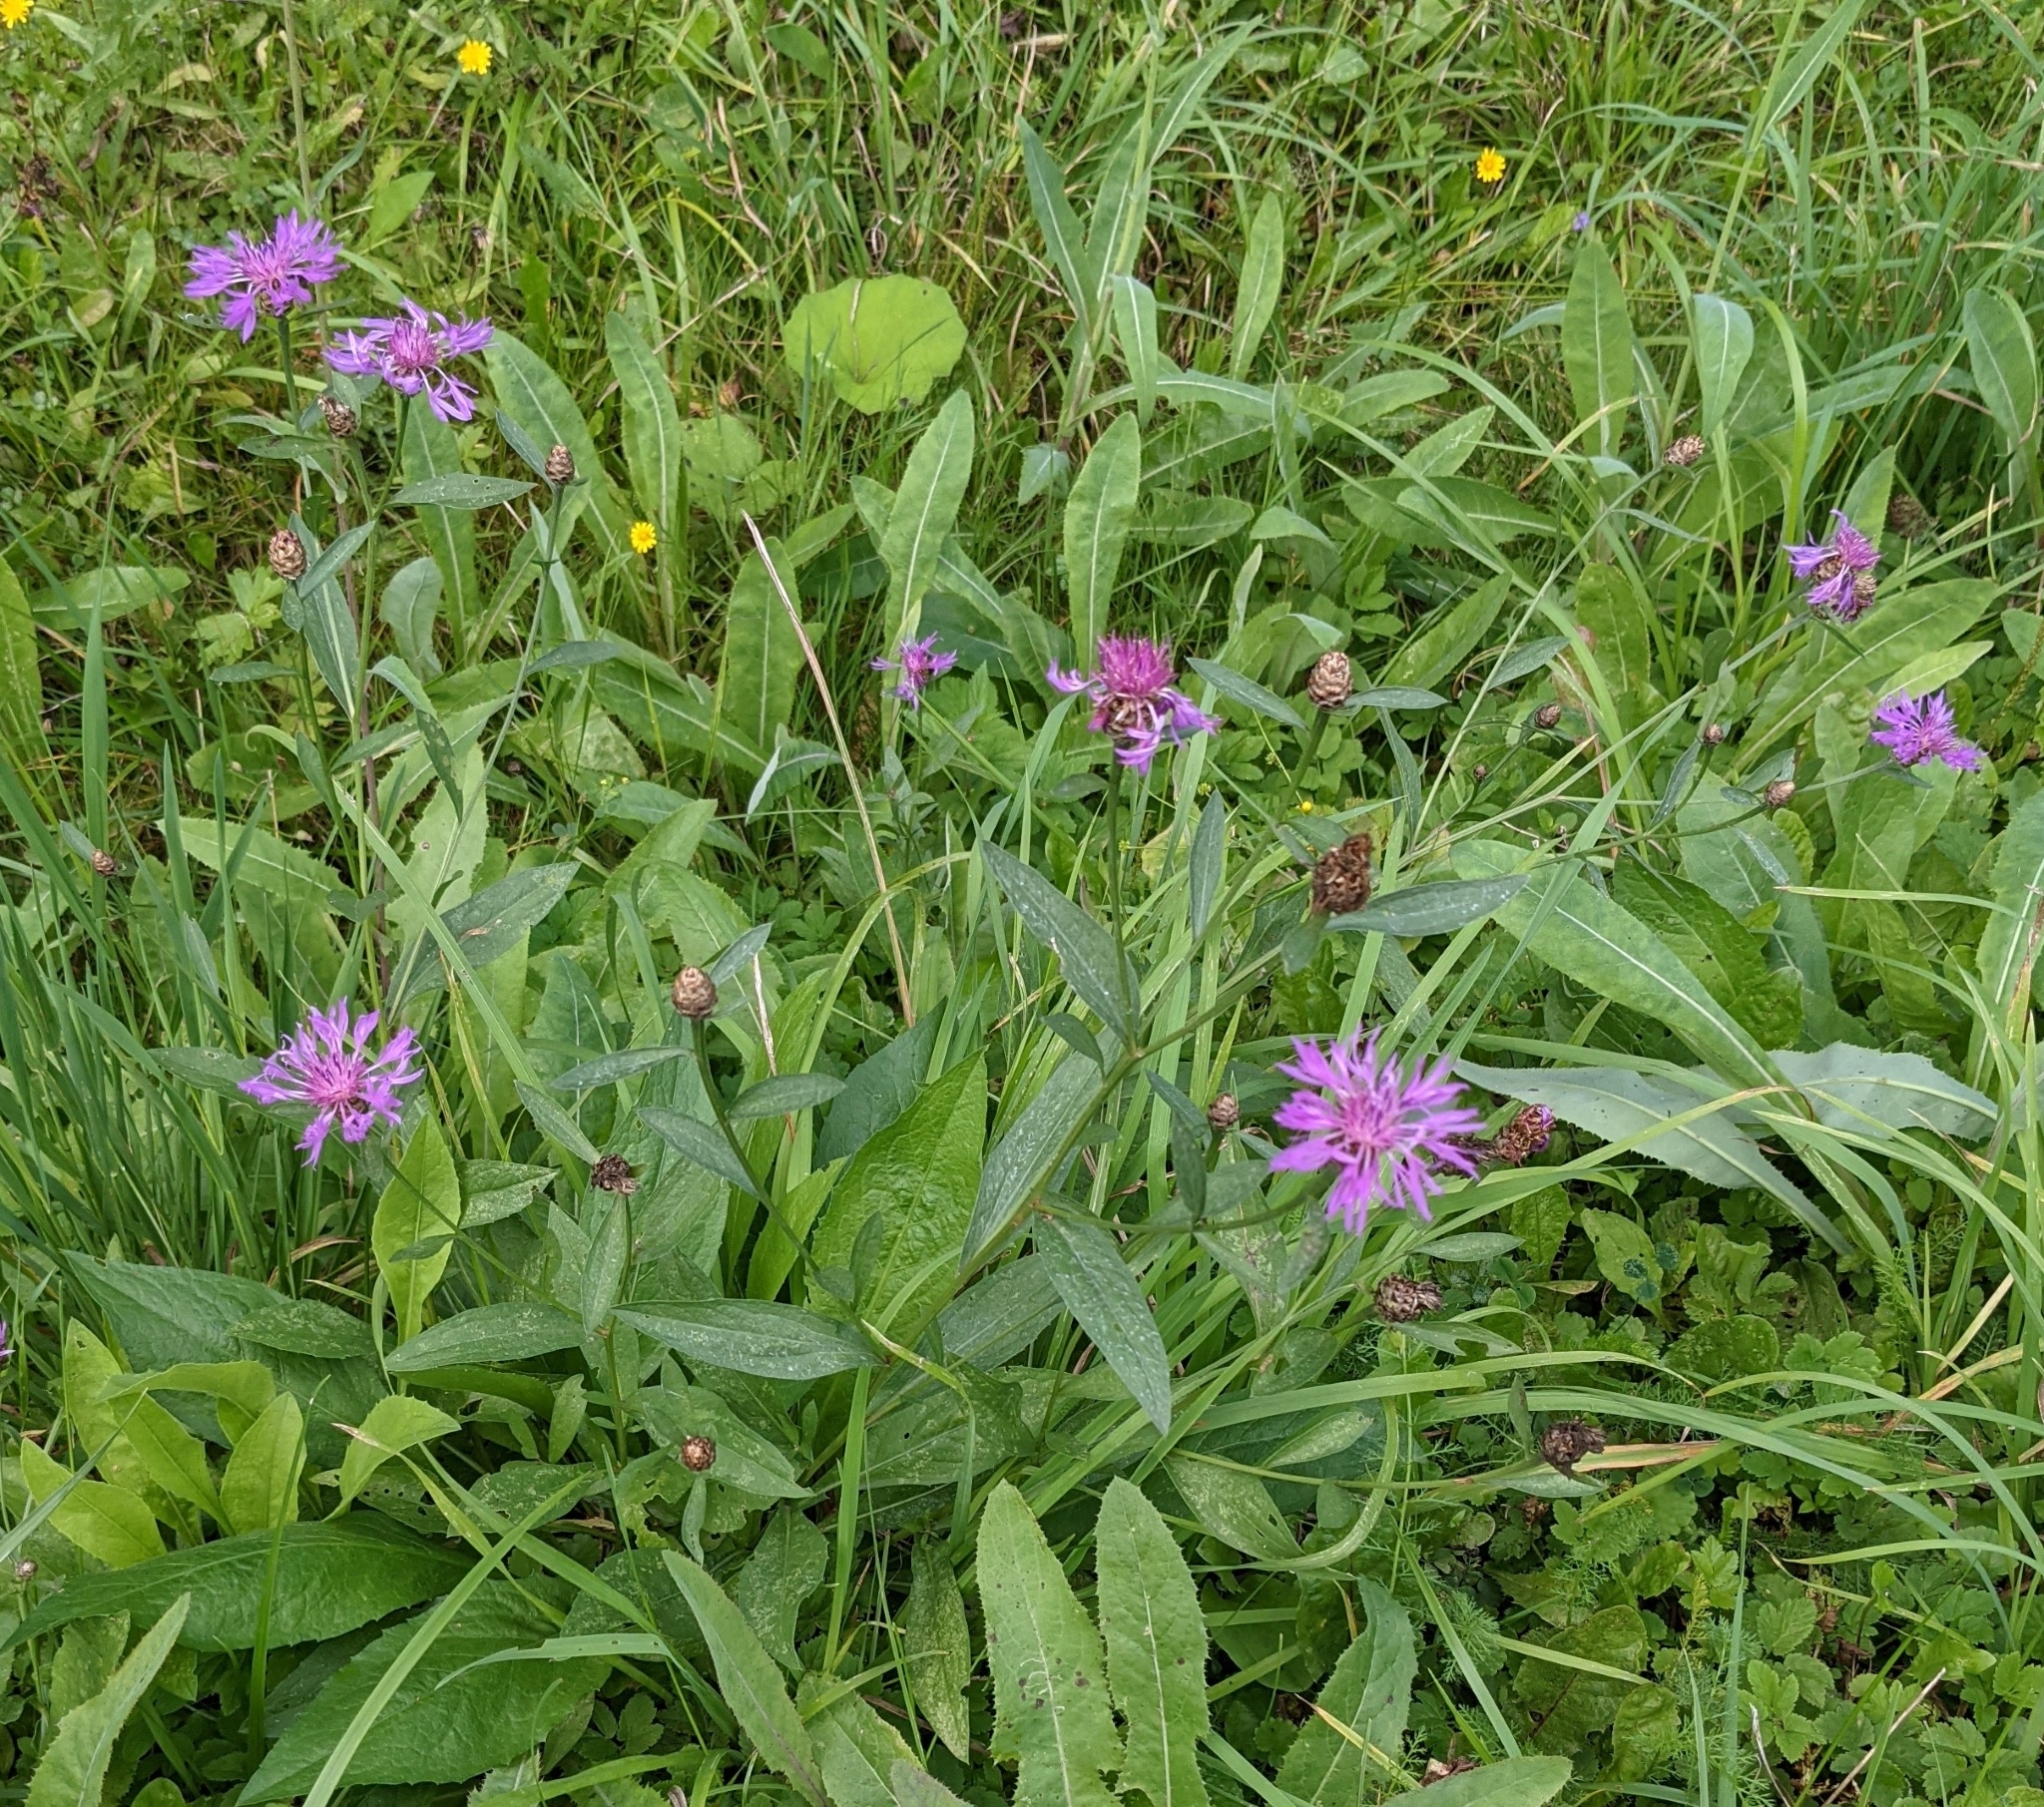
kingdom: Plantae
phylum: Tracheophyta
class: Magnoliopsida
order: Asterales
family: Asteraceae
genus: Centaurea
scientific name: Centaurea jacea
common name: Brown knapweed
